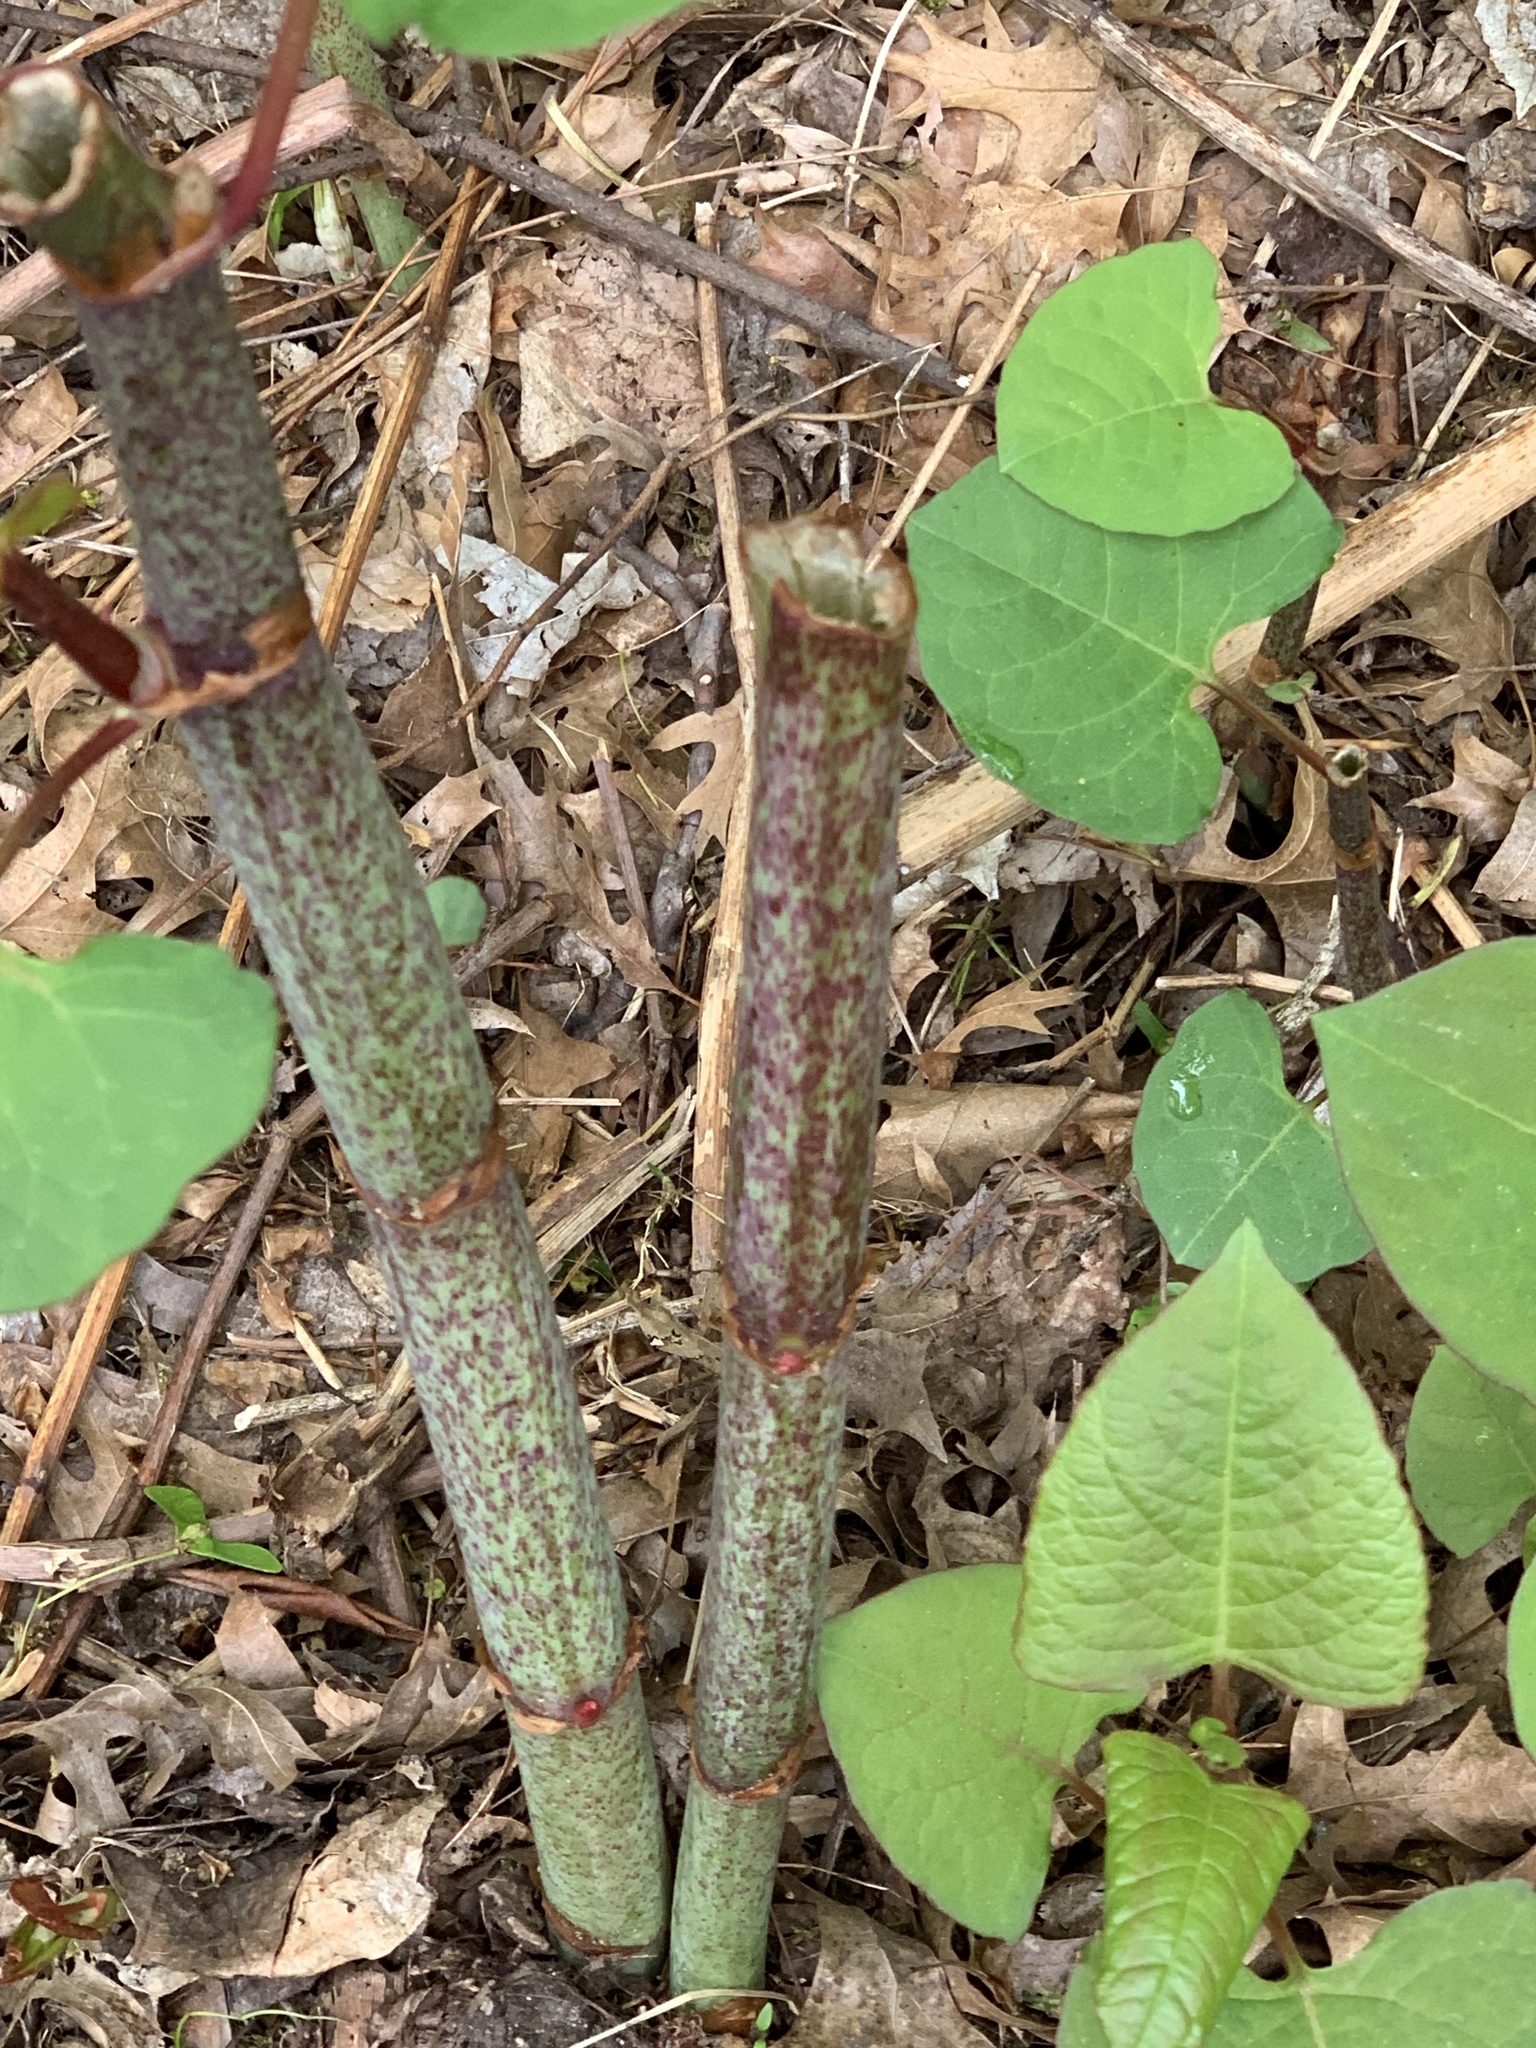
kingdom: Plantae
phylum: Tracheophyta
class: Magnoliopsida
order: Caryophyllales
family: Polygonaceae
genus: Reynoutria
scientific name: Reynoutria japonica
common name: Japanese knotweed
